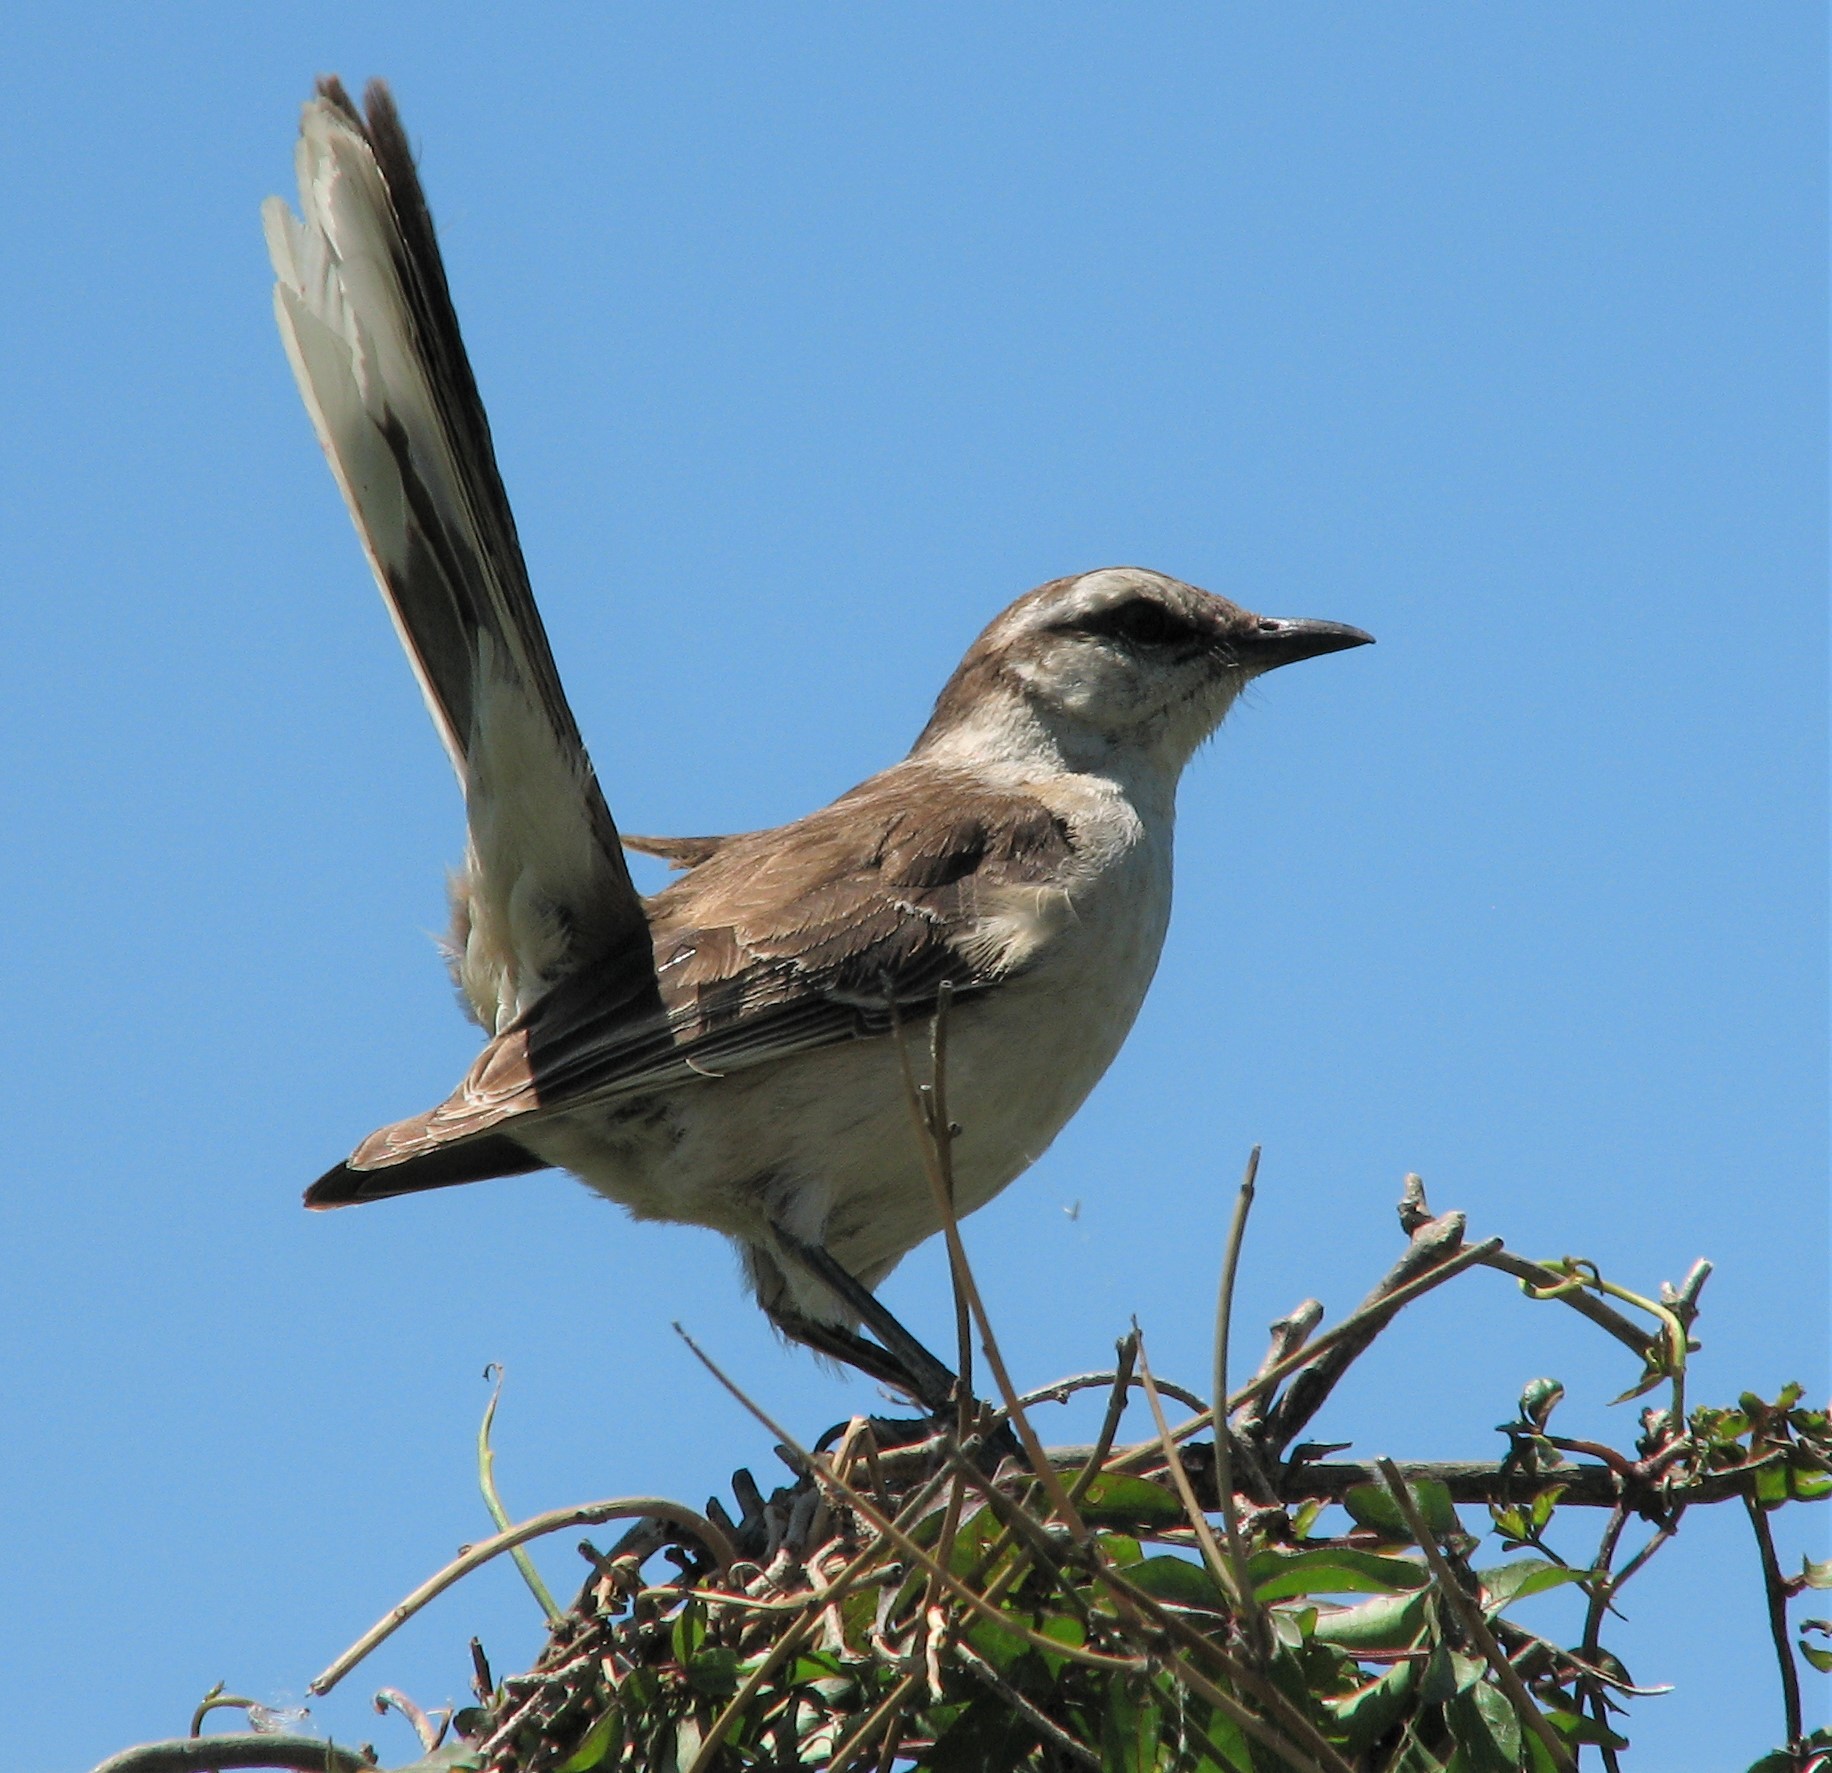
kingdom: Animalia
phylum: Chordata
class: Aves
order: Passeriformes
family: Mimidae
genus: Mimus
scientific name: Mimus saturninus
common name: Chalk-browed mockingbird
